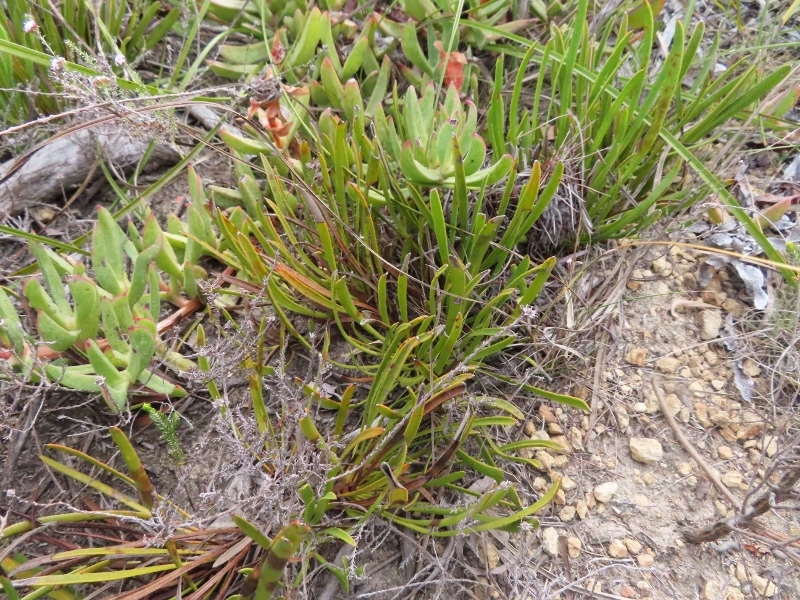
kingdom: Plantae
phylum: Tracheophyta
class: Magnoliopsida
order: Proteales
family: Proteaceae
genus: Protea
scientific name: Protea aspera
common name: Rough-leaf sugarbush
